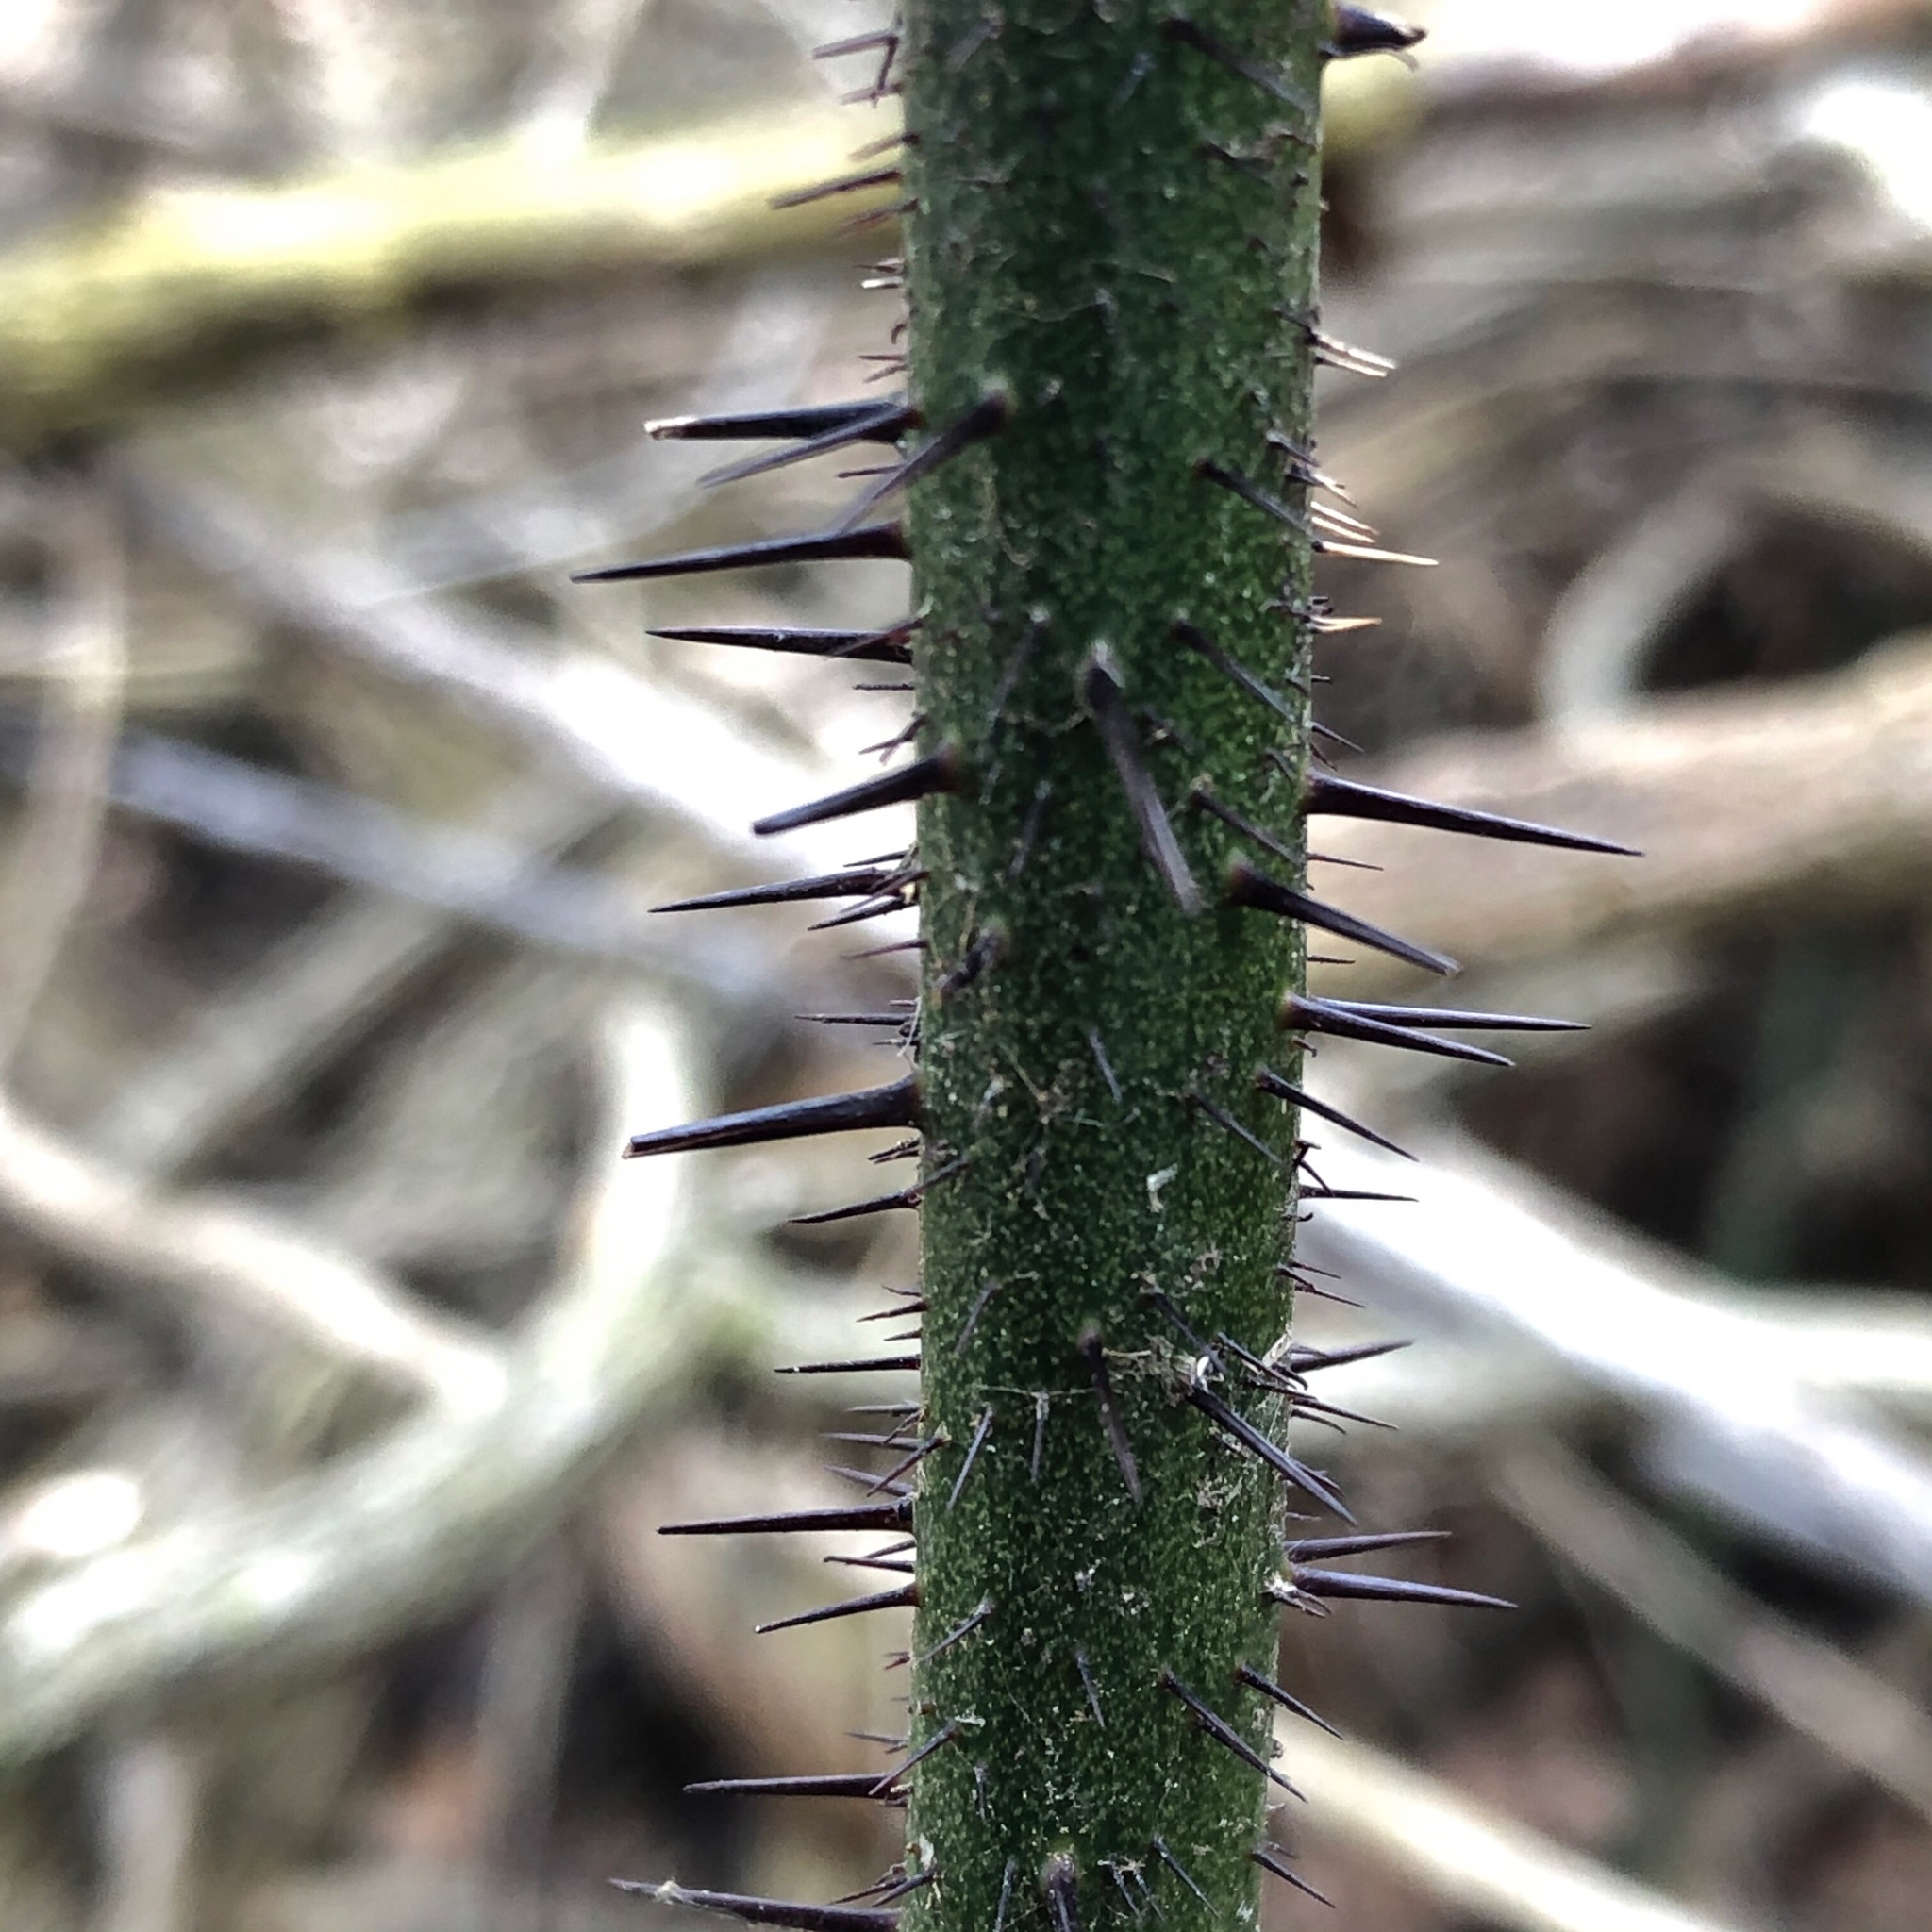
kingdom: Plantae
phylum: Tracheophyta
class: Liliopsida
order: Liliales
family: Smilacaceae
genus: Smilax
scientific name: Smilax tamnoides
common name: Hellfetter
